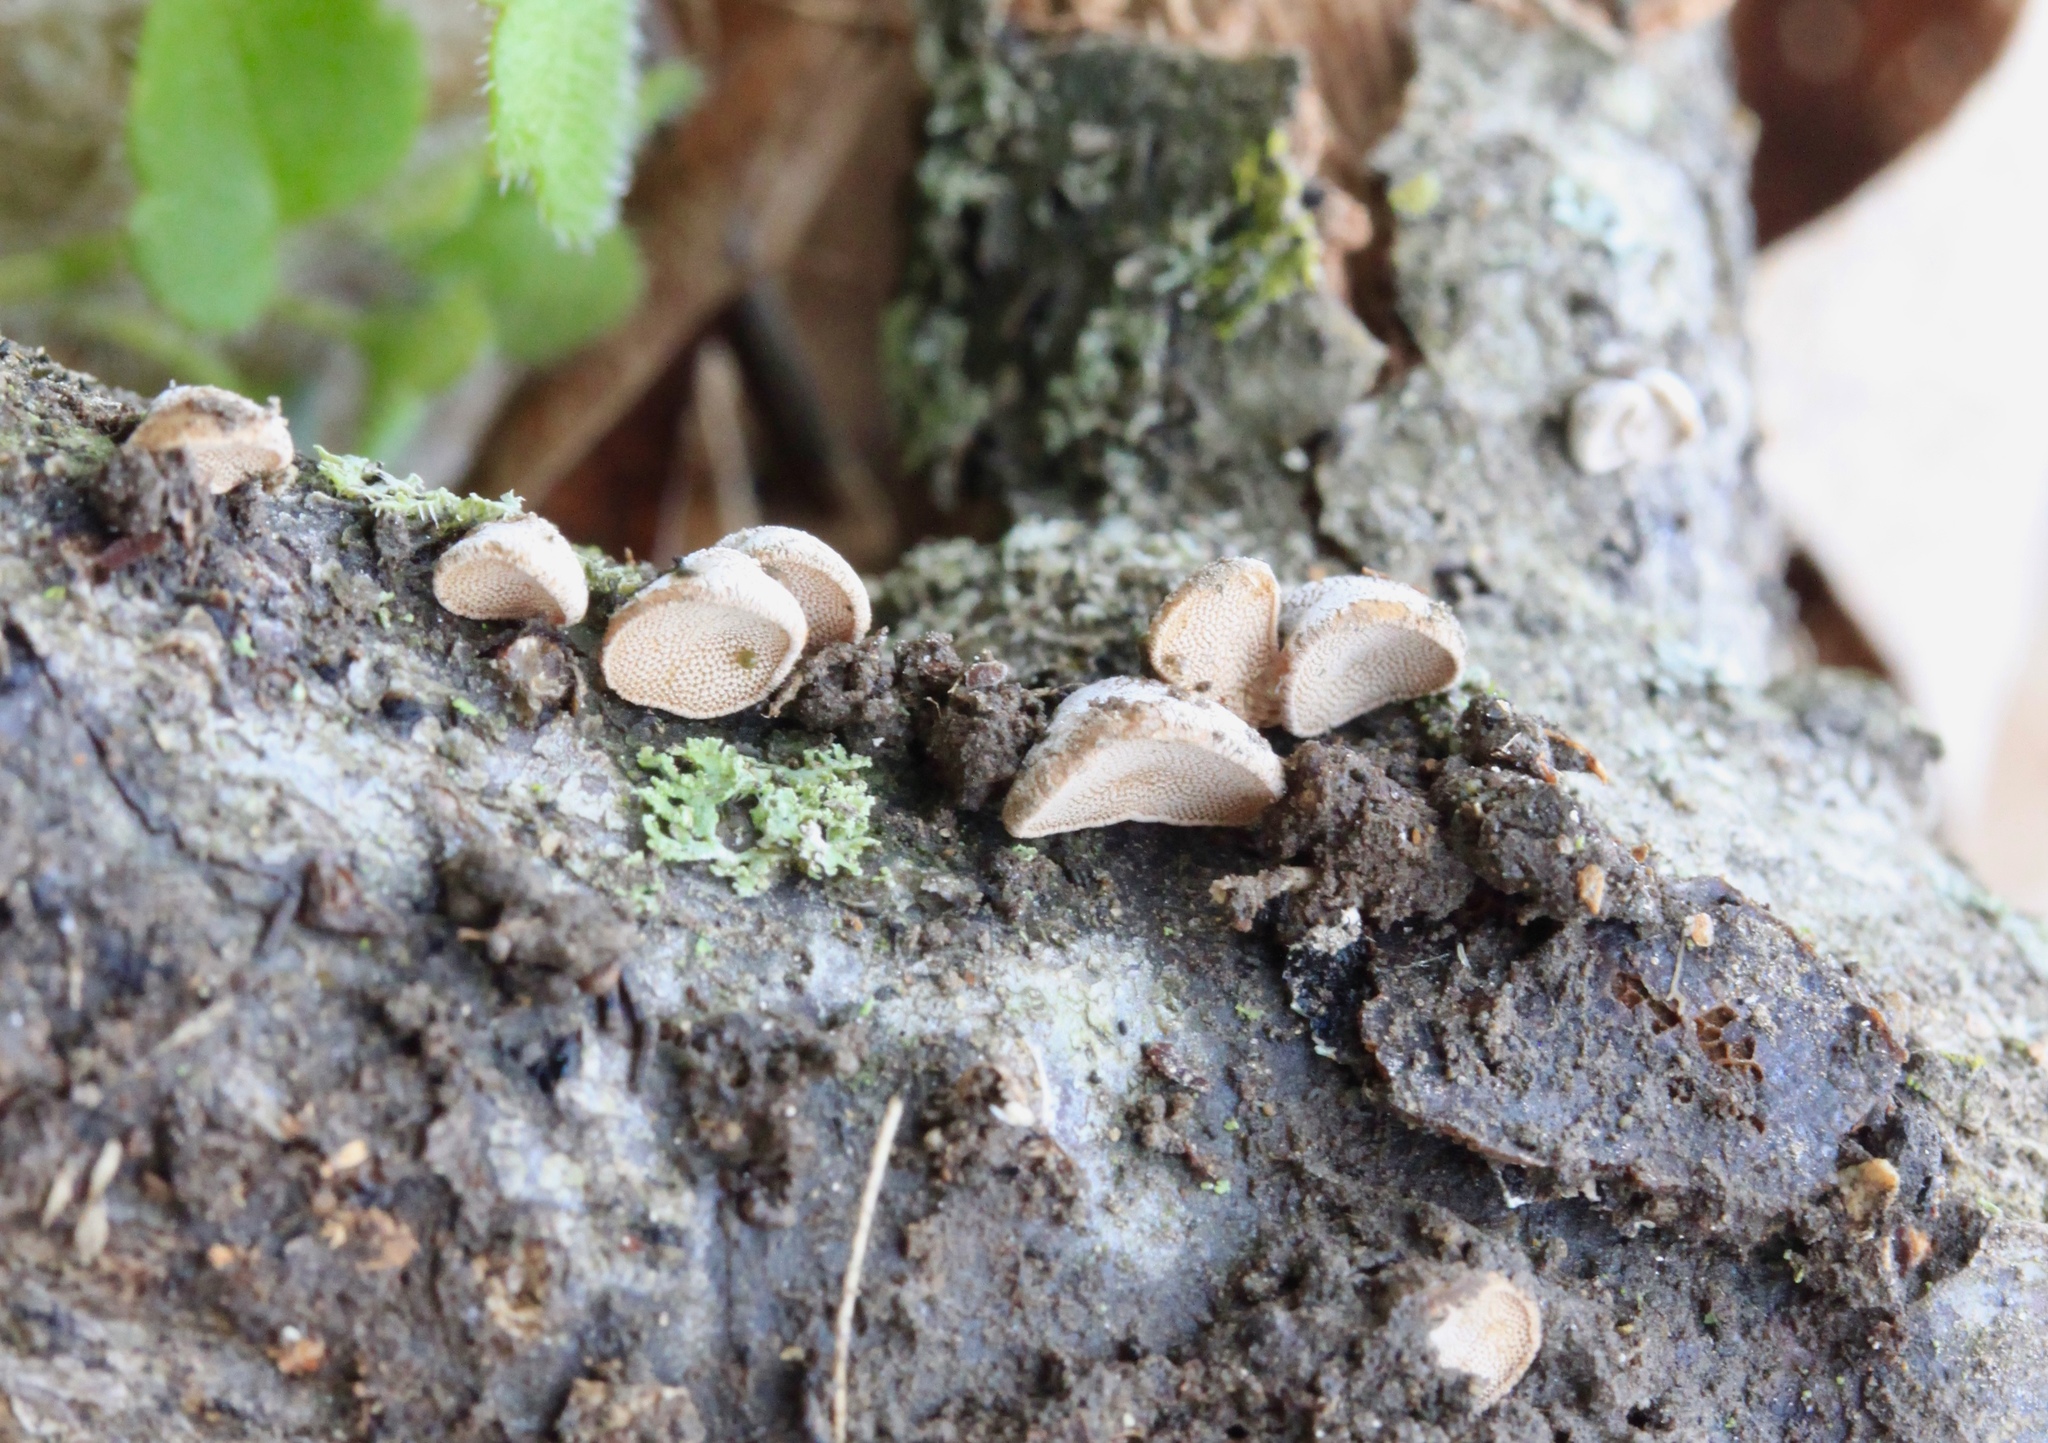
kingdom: Fungi
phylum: Basidiomycota
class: Agaricomycetes
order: Agaricales
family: Schizophyllaceae
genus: Porodisculus
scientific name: Porodisculus pendulus
